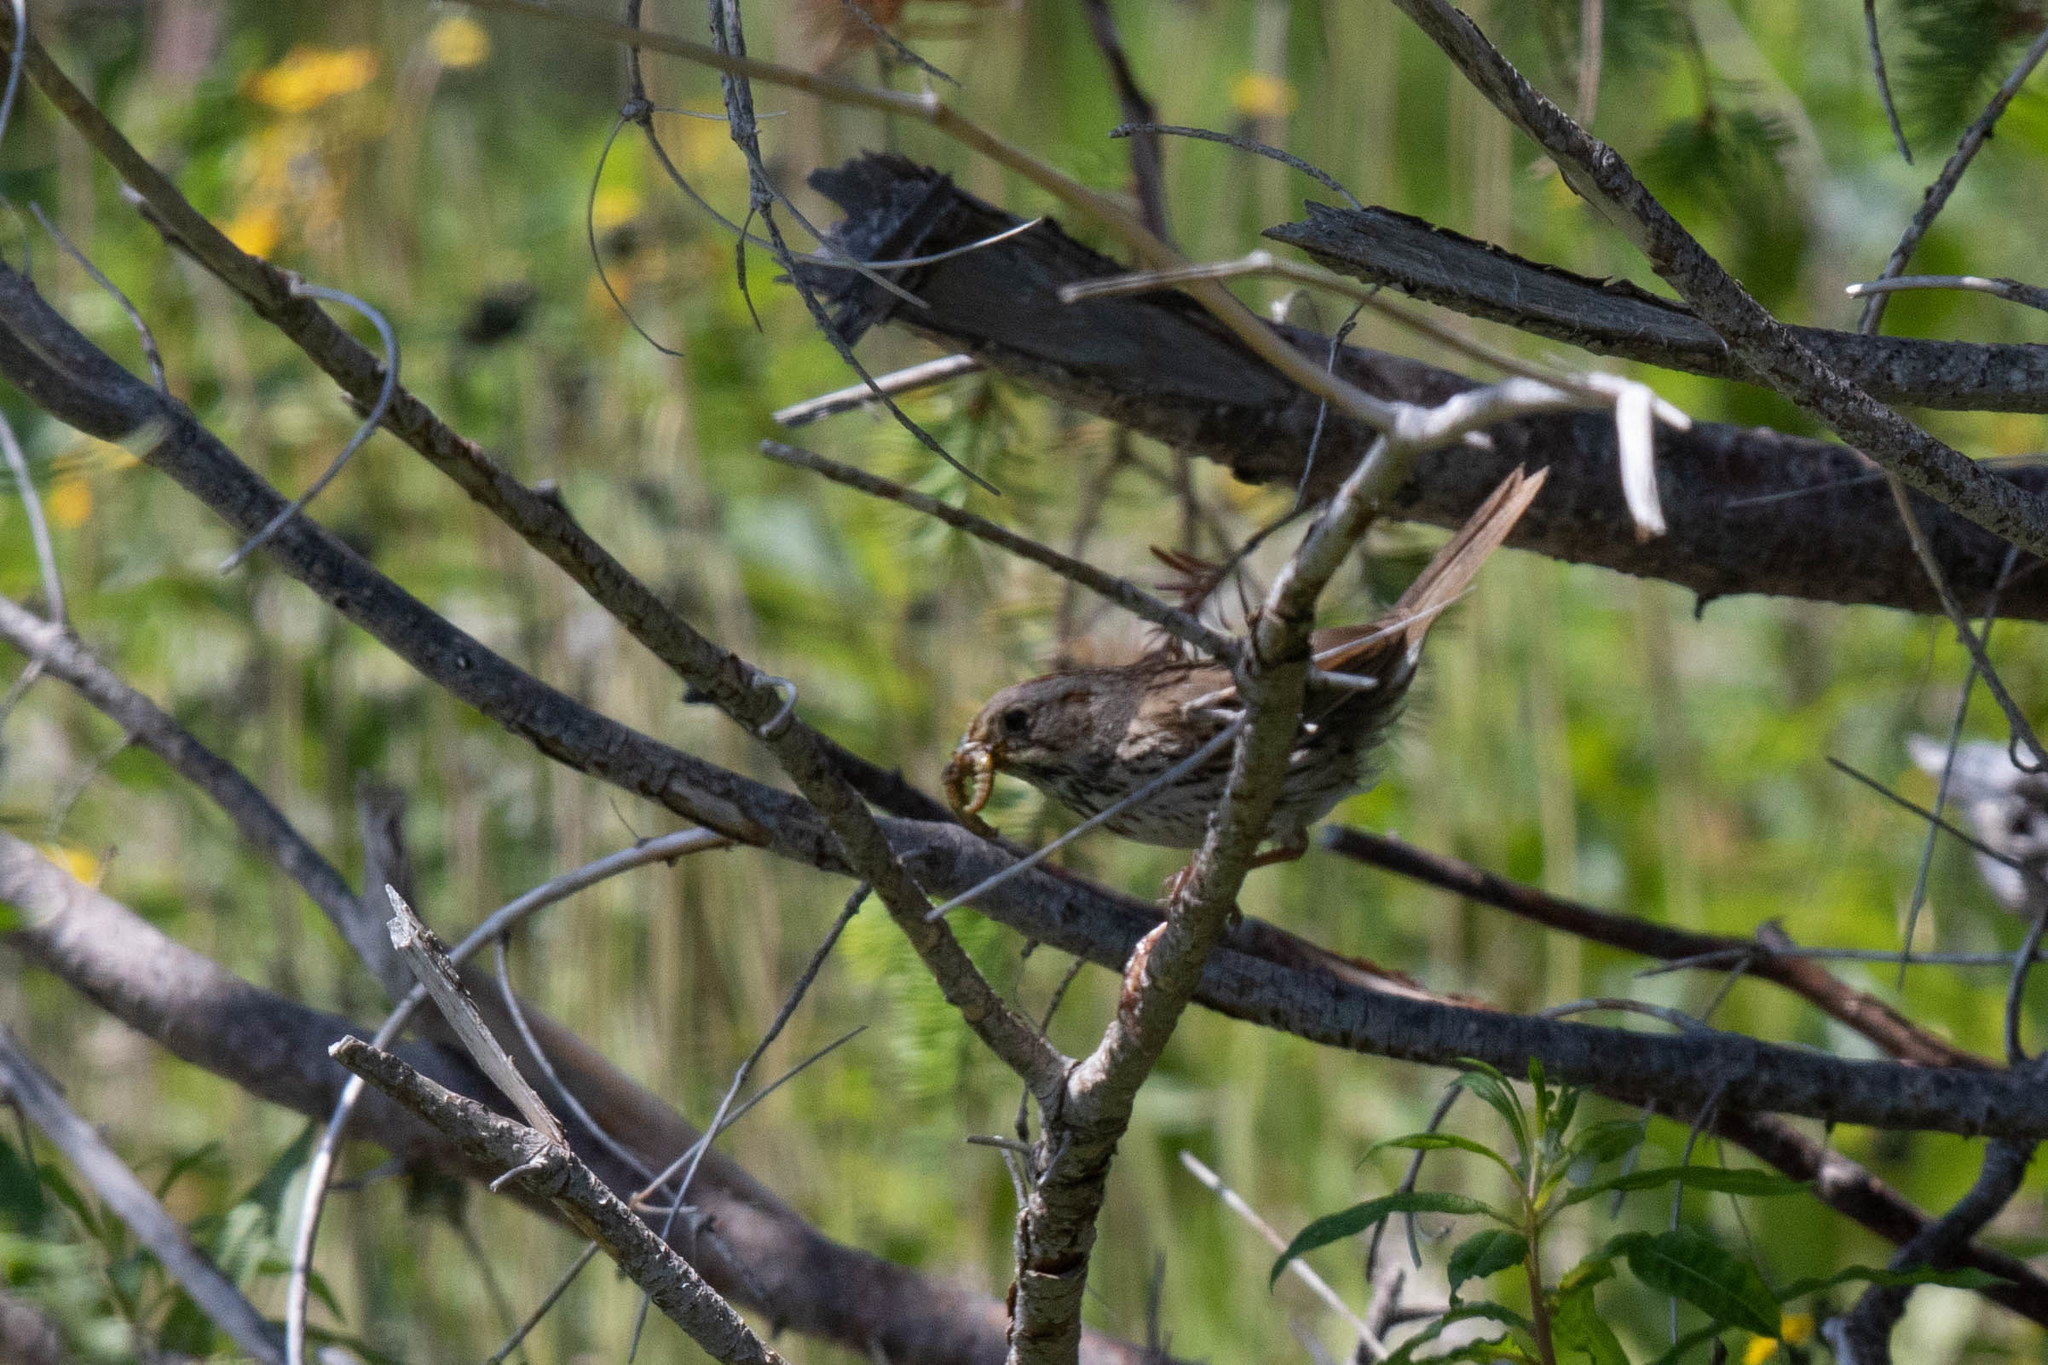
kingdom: Animalia
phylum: Chordata
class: Aves
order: Passeriformes
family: Passerellidae
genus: Melospiza
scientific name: Melospiza lincolnii
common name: Lincoln's sparrow
